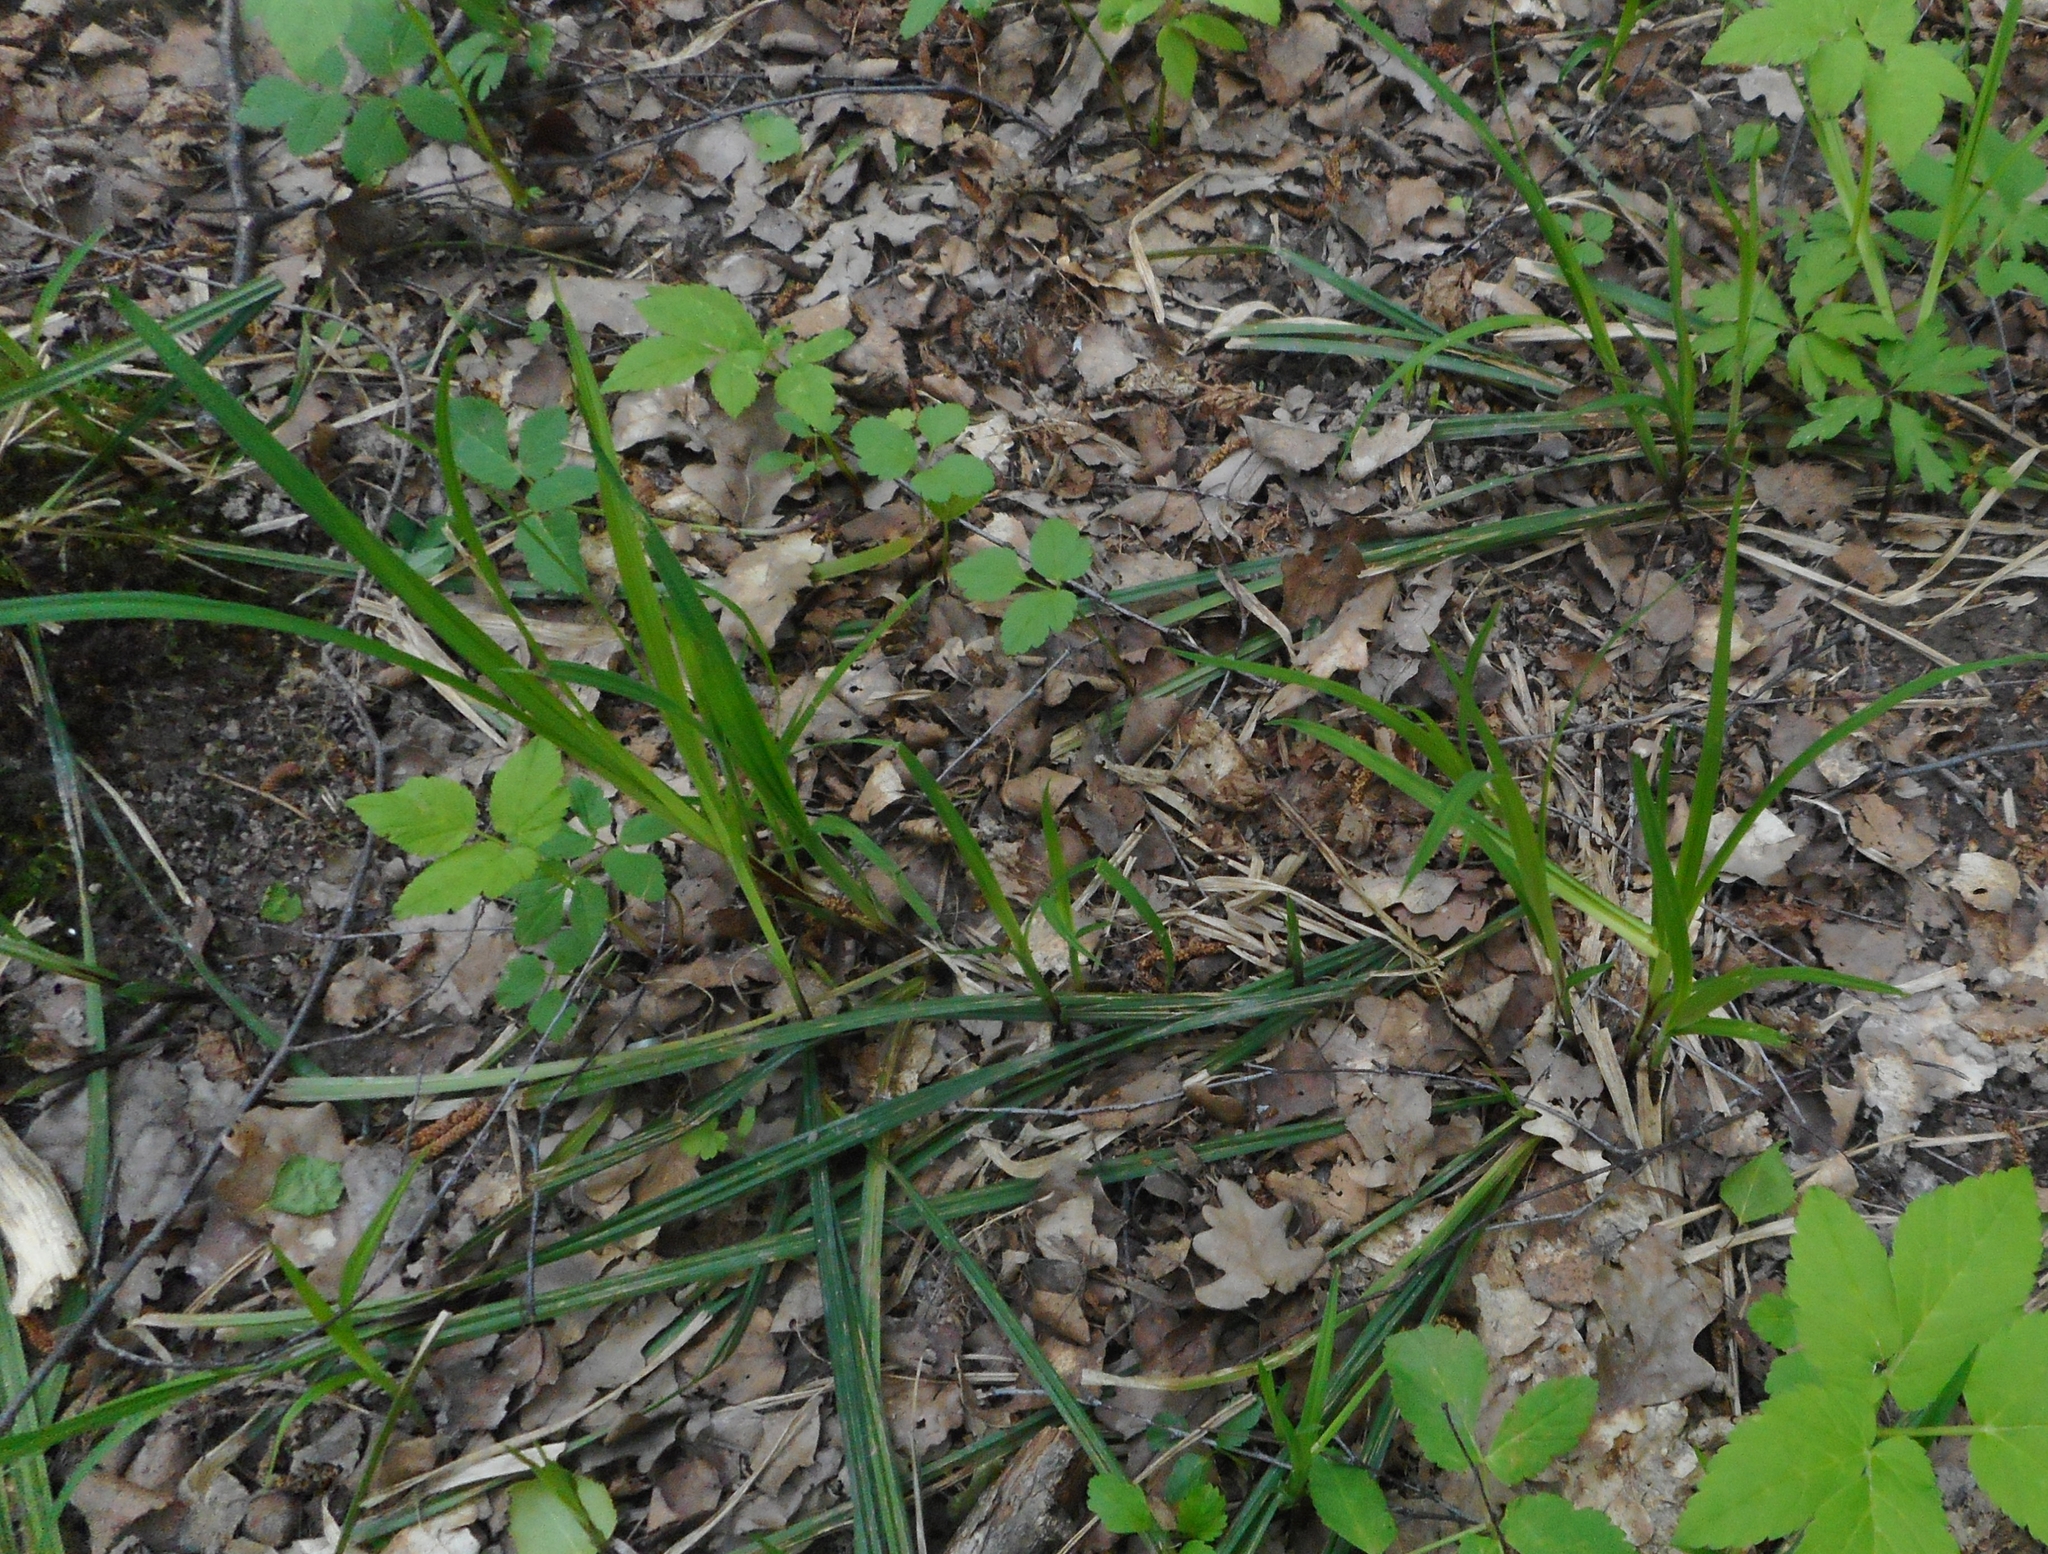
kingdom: Plantae
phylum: Tracheophyta
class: Liliopsida
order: Poales
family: Cyperaceae
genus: Carex
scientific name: Carex pilosa
